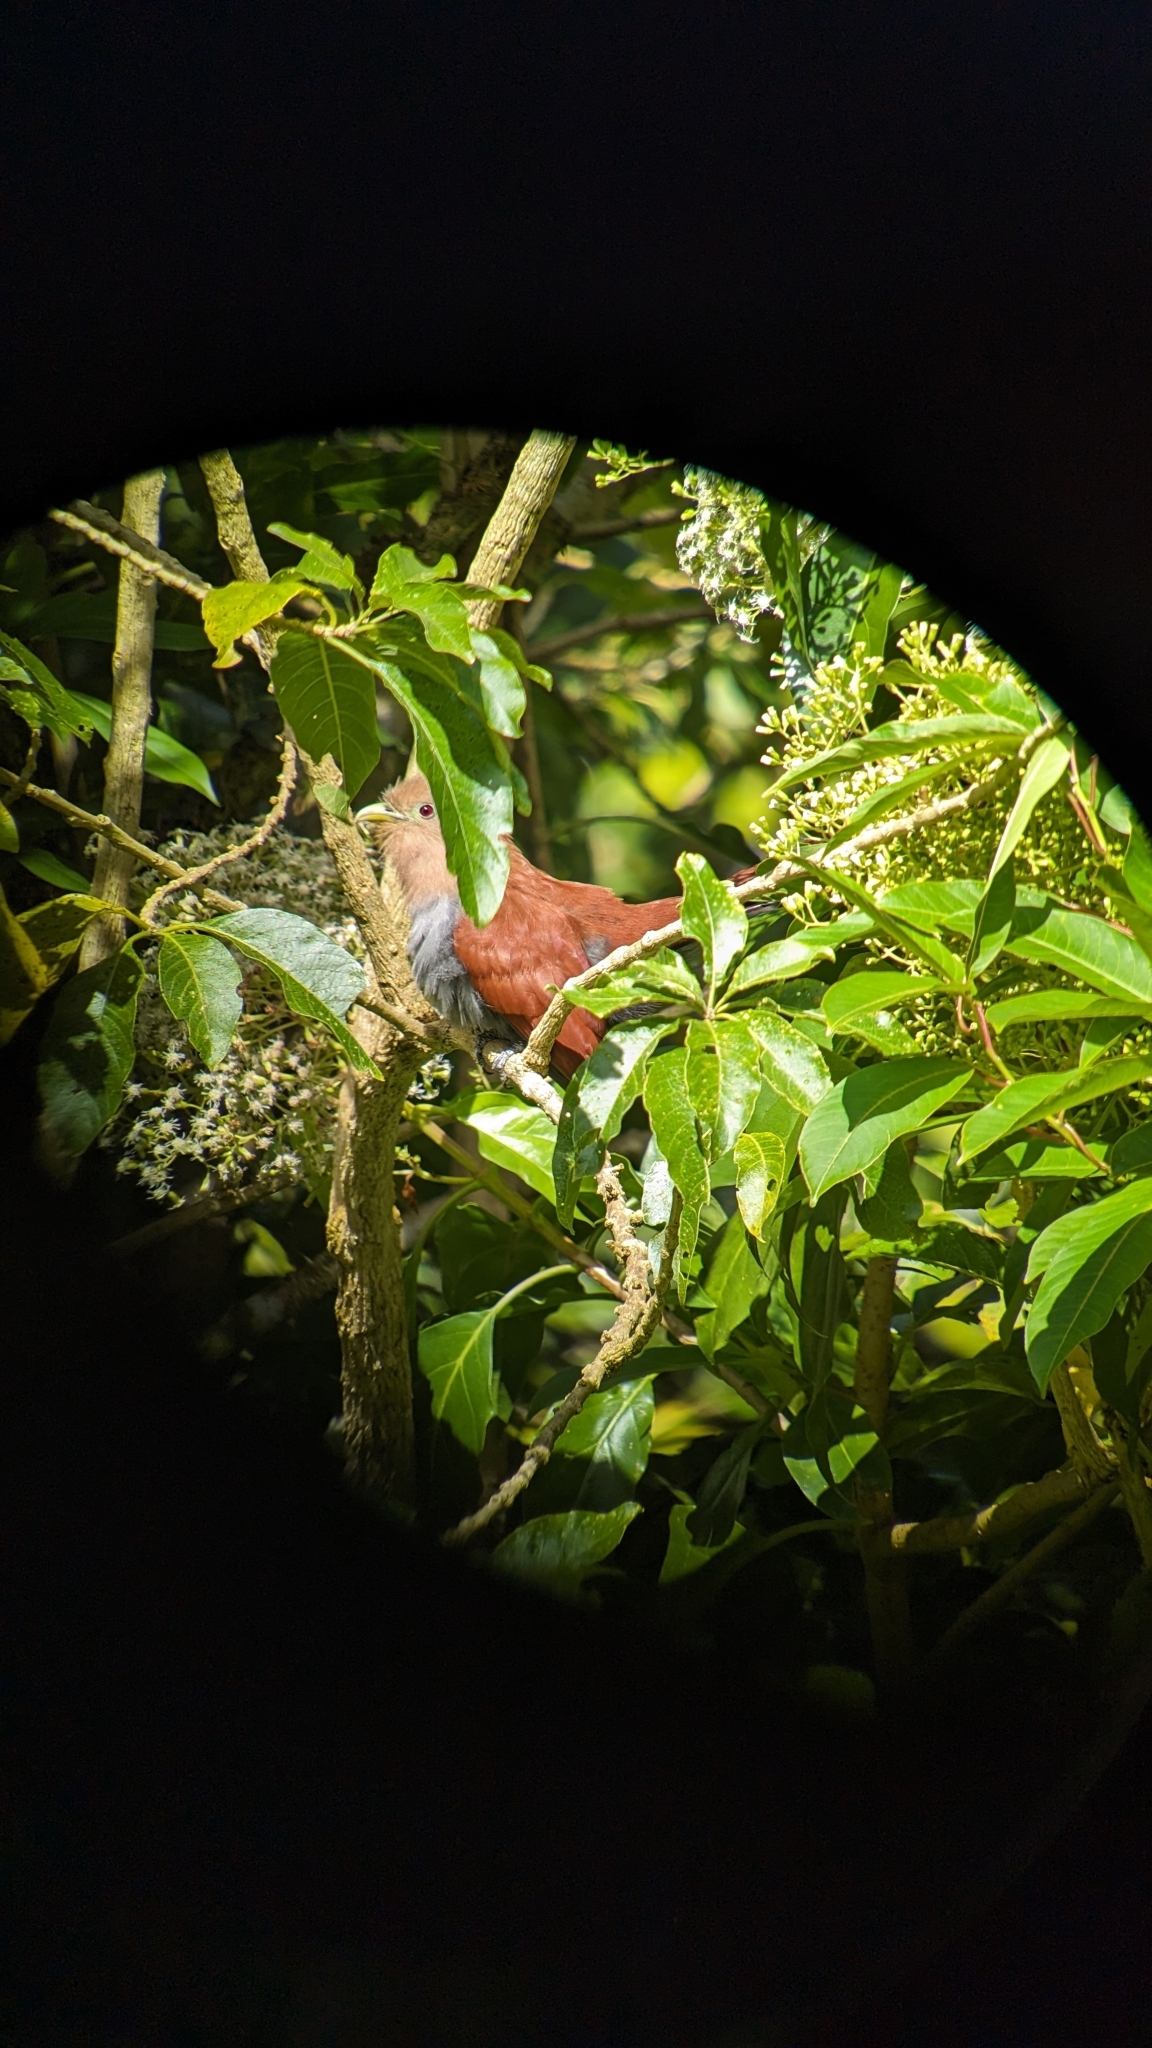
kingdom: Animalia
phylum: Chordata
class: Aves
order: Cuculiformes
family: Cuculidae
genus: Piaya
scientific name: Piaya cayana
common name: Squirrel cuckoo
